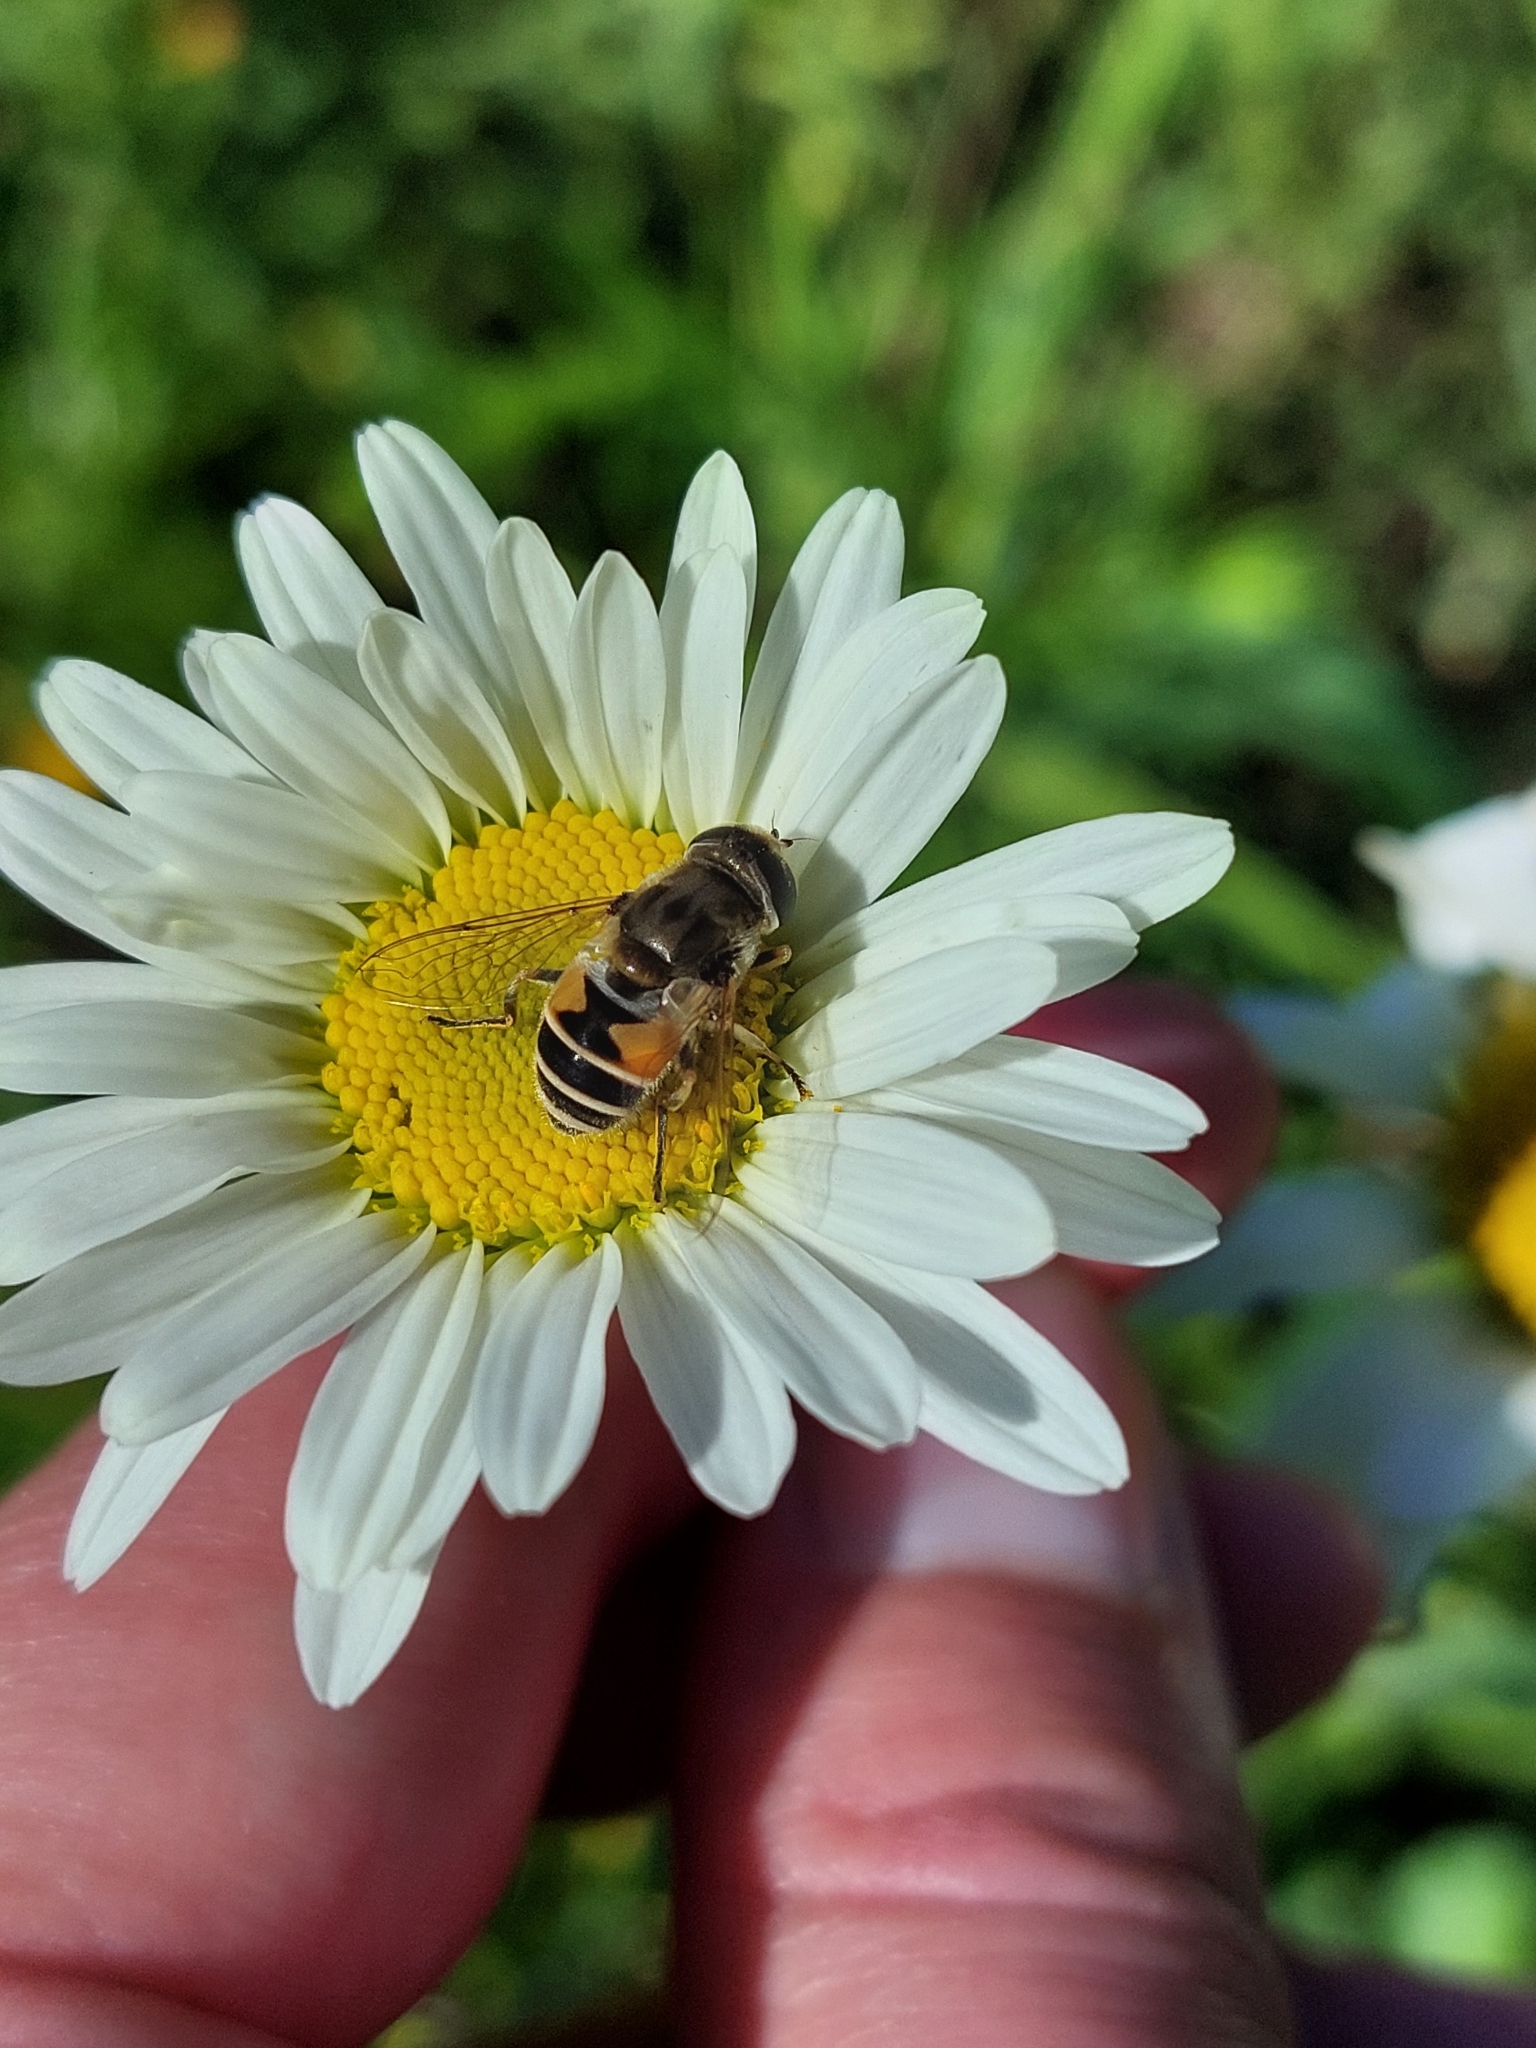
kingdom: Animalia
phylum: Arthropoda
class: Insecta
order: Diptera
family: Syrphidae
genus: Eristalis
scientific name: Eristalis arbustorum
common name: Hover fly
